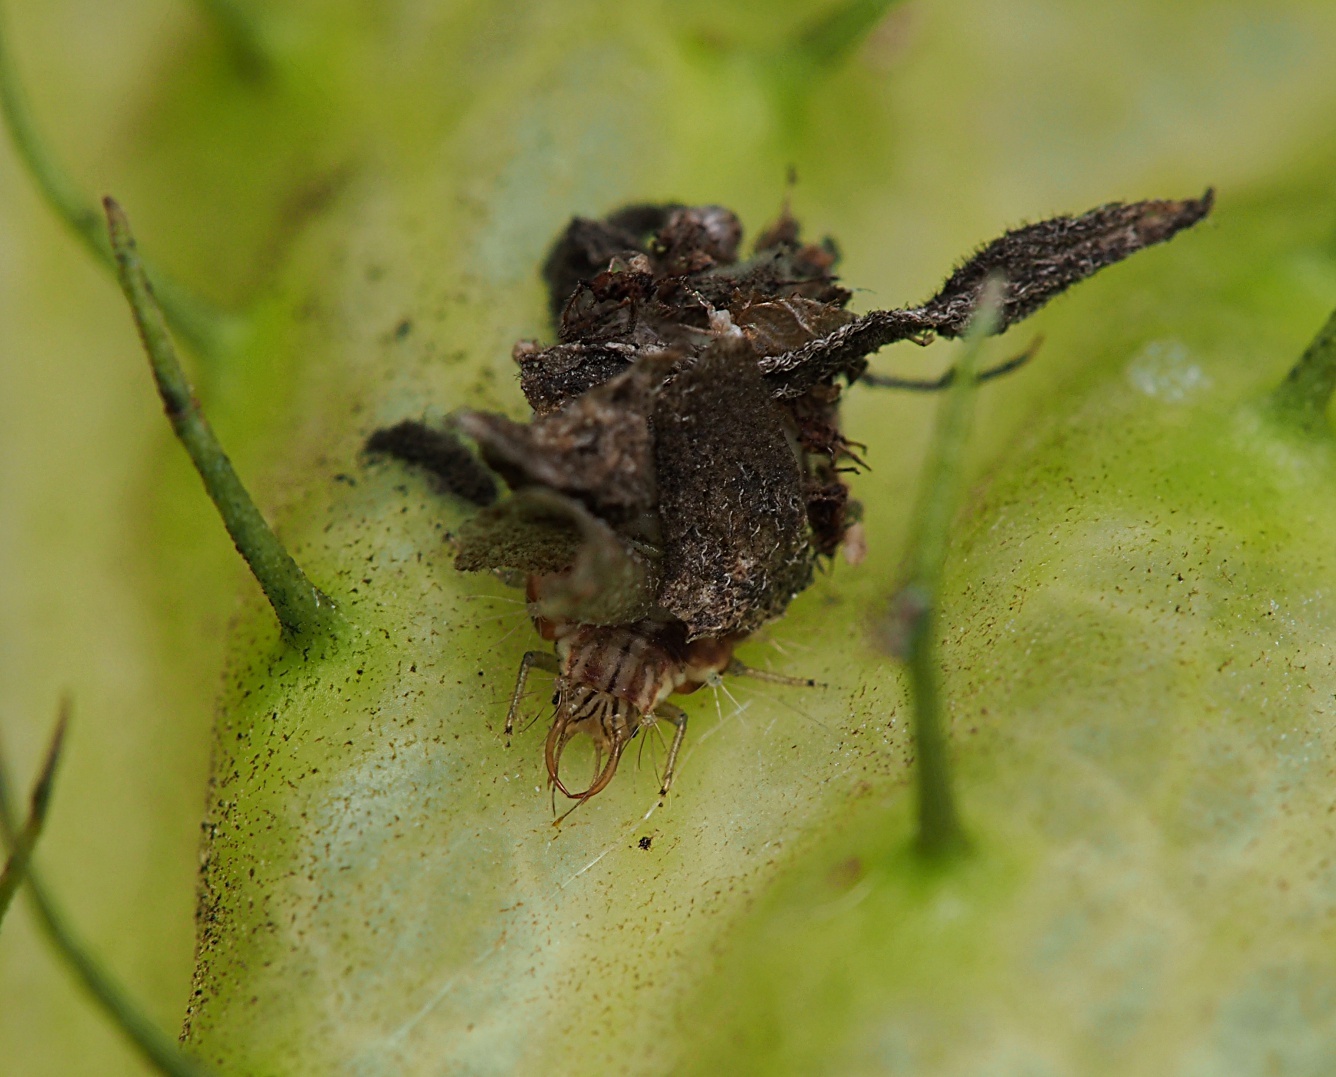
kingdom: Animalia
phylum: Arthropoda
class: Insecta
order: Neuroptera
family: Chrysopidae
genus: Mallada
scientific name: Mallada basalis
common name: Green lacewing
